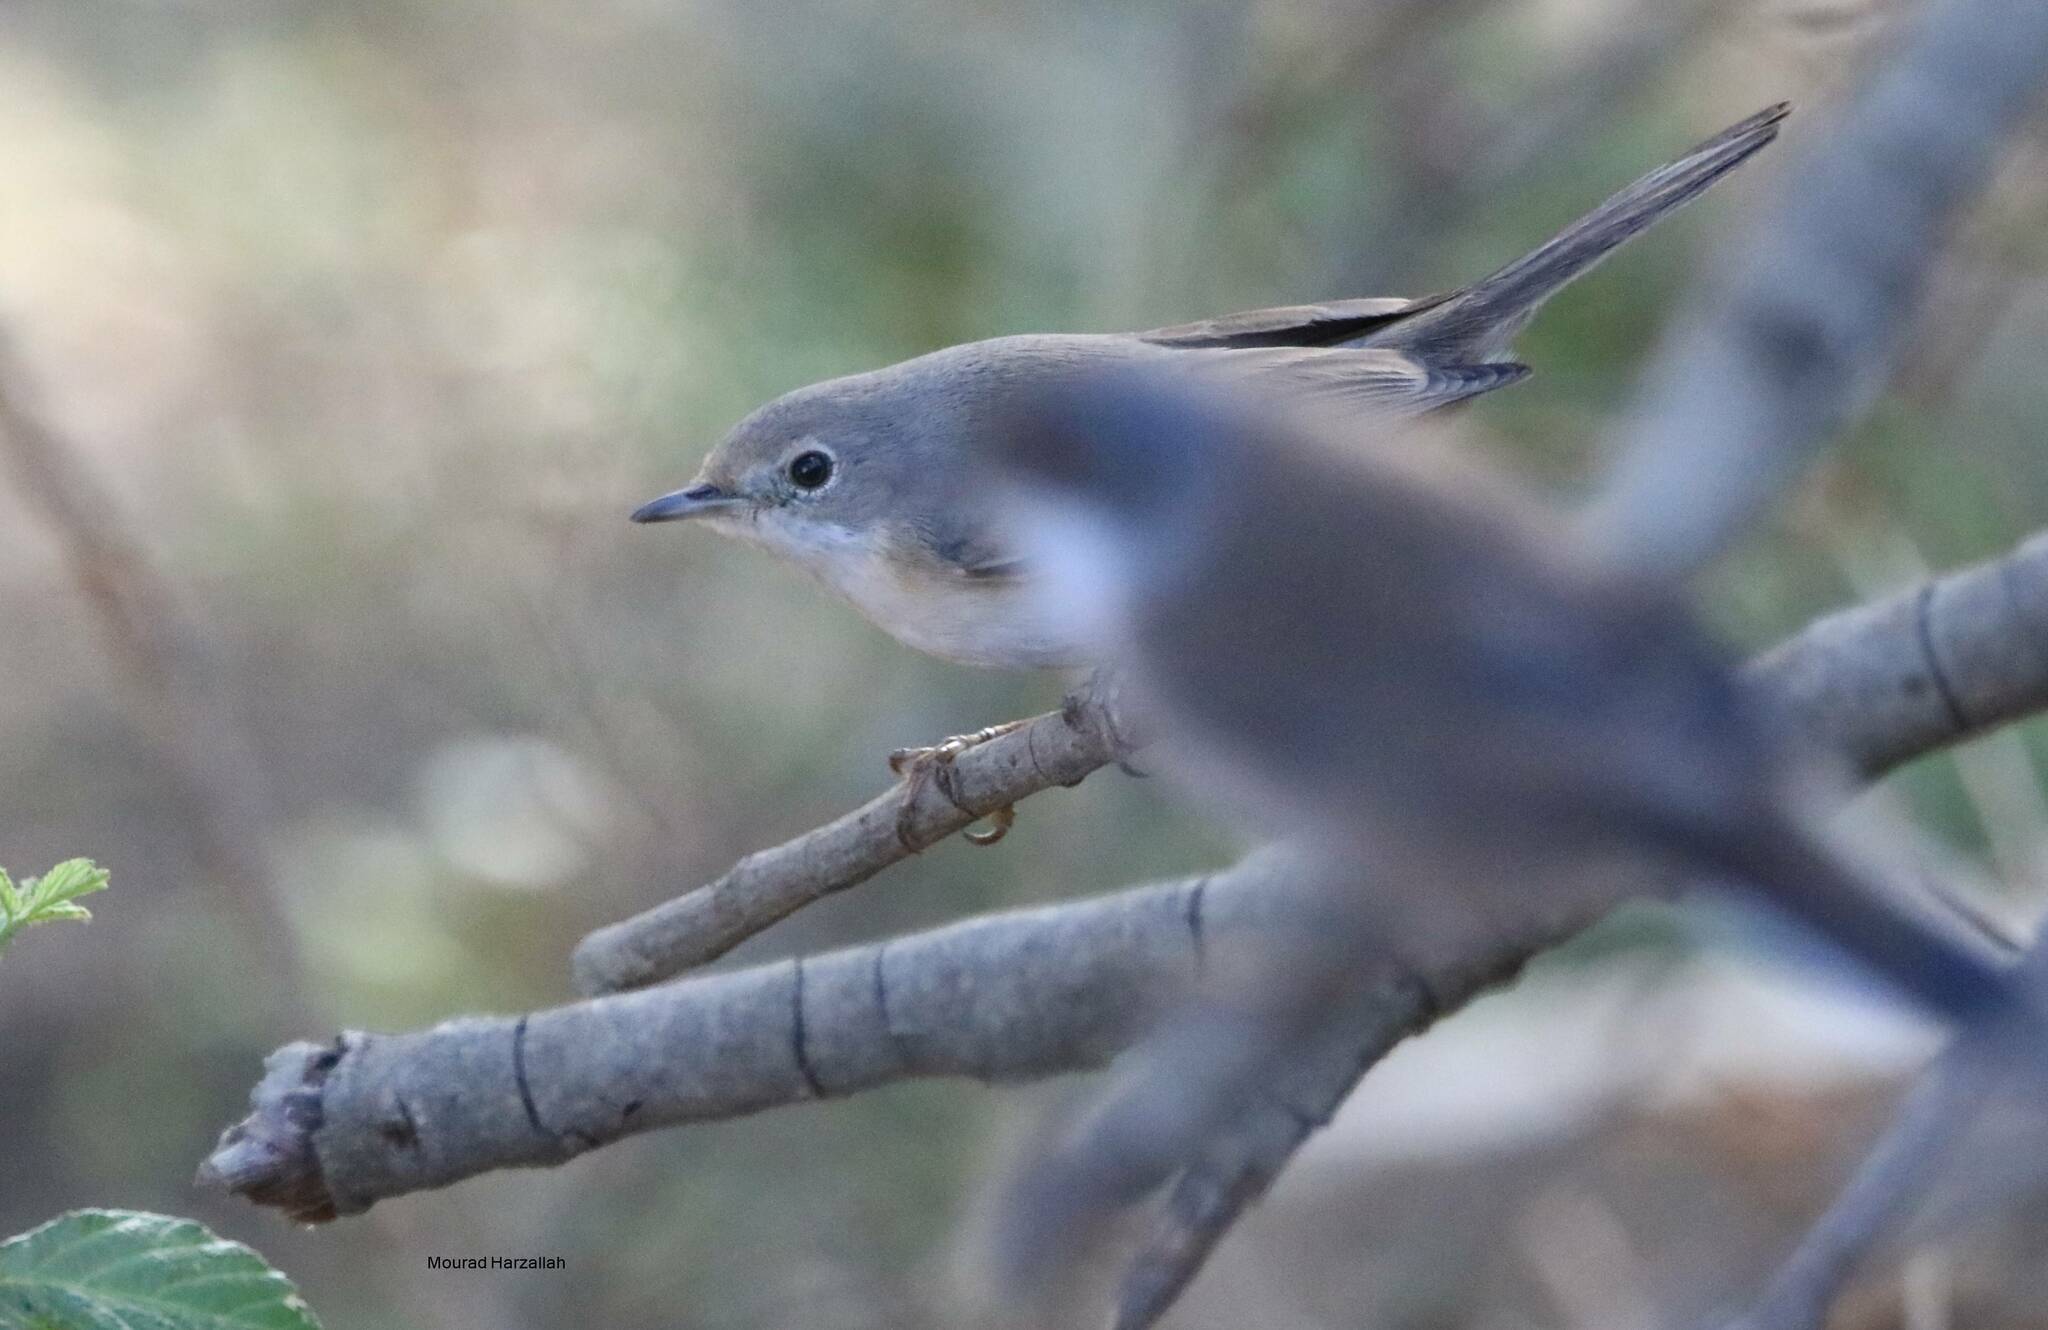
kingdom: Animalia
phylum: Chordata
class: Aves
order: Passeriformes
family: Sylviidae
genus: Curruca
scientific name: Curruca iberiae
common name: Western subalpine warbler
